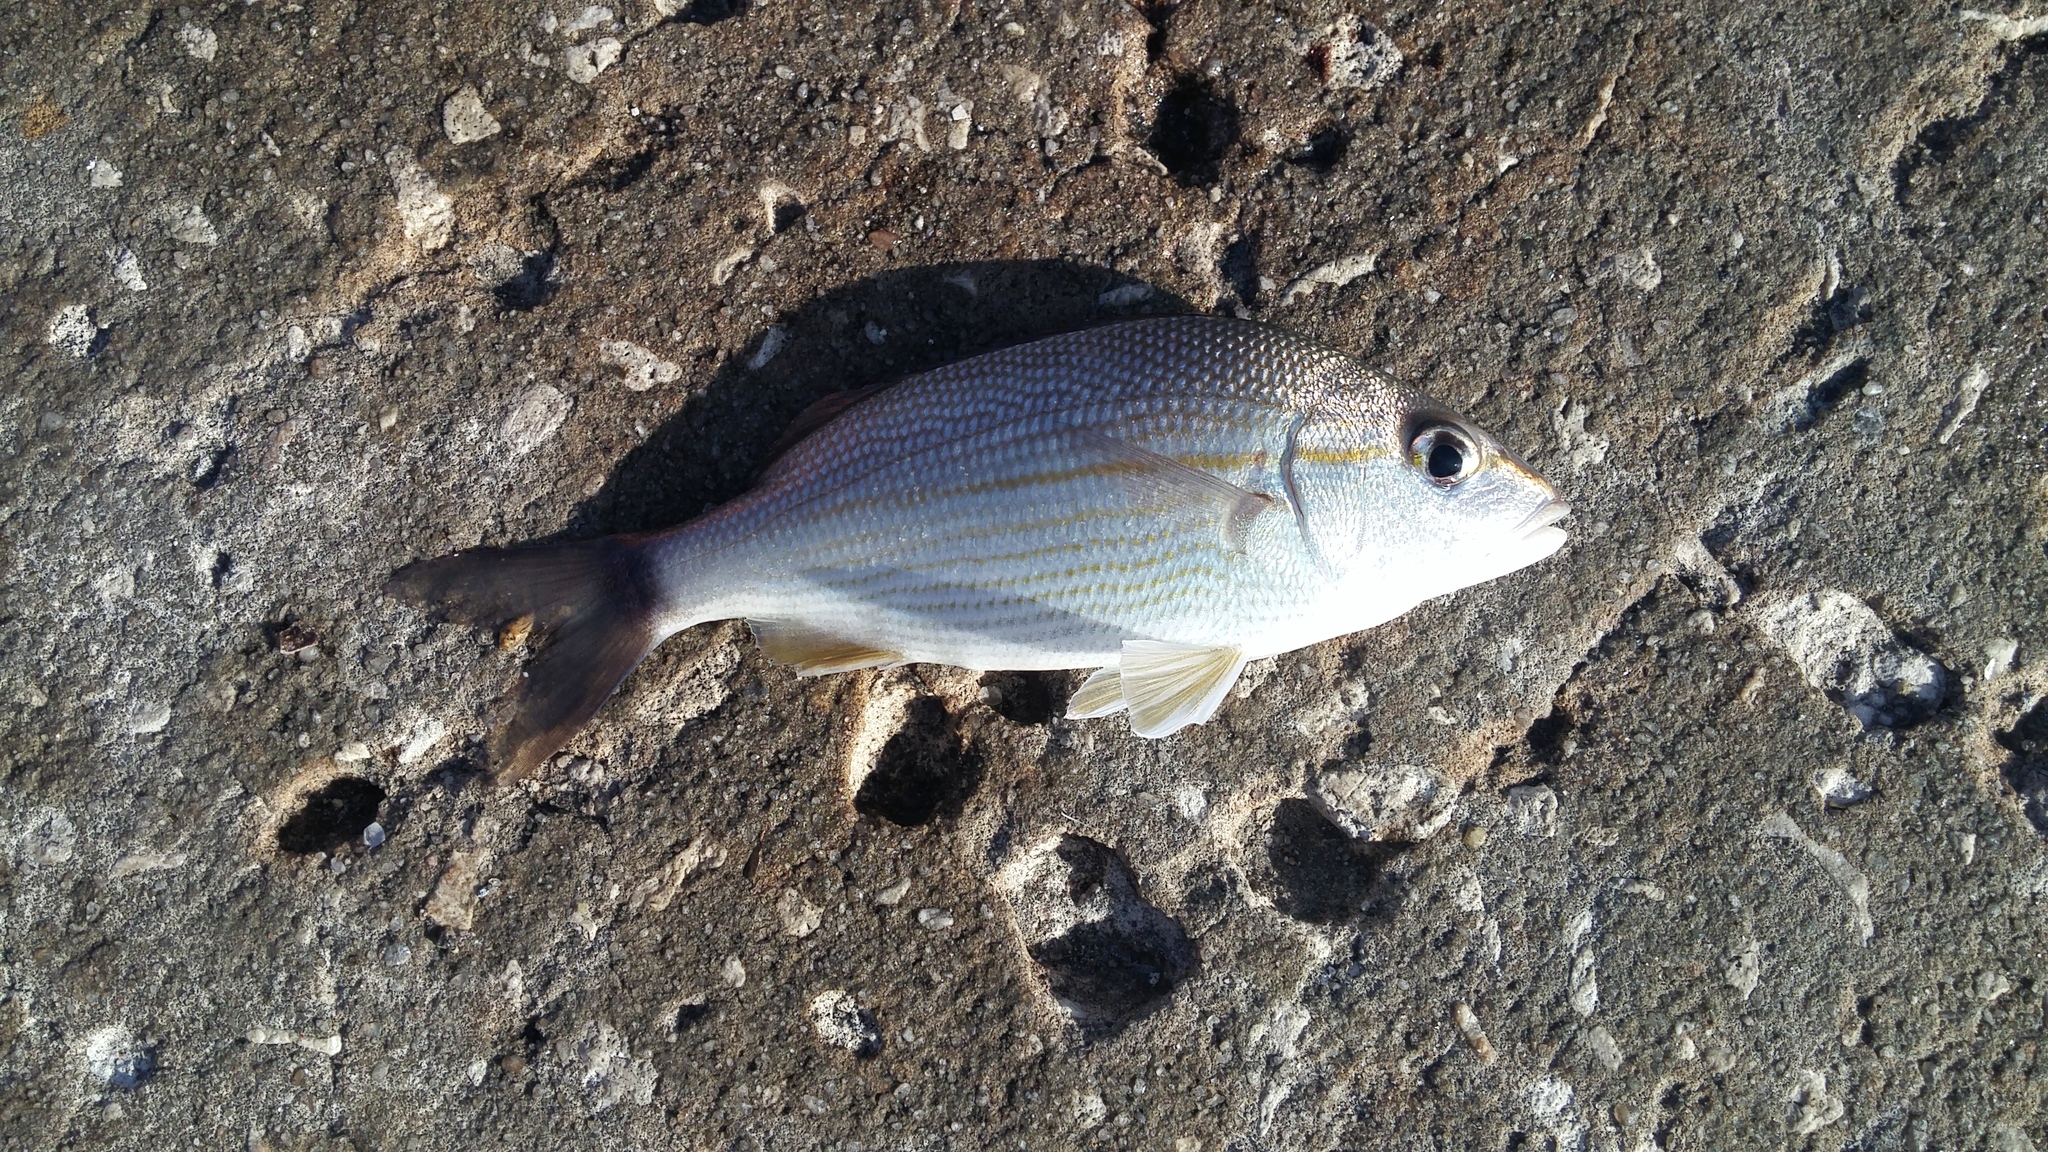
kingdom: Animalia
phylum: Chordata
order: Perciformes
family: Haemulidae
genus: Haemulon
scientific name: Haemulon aurolineatum
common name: Tomtate
